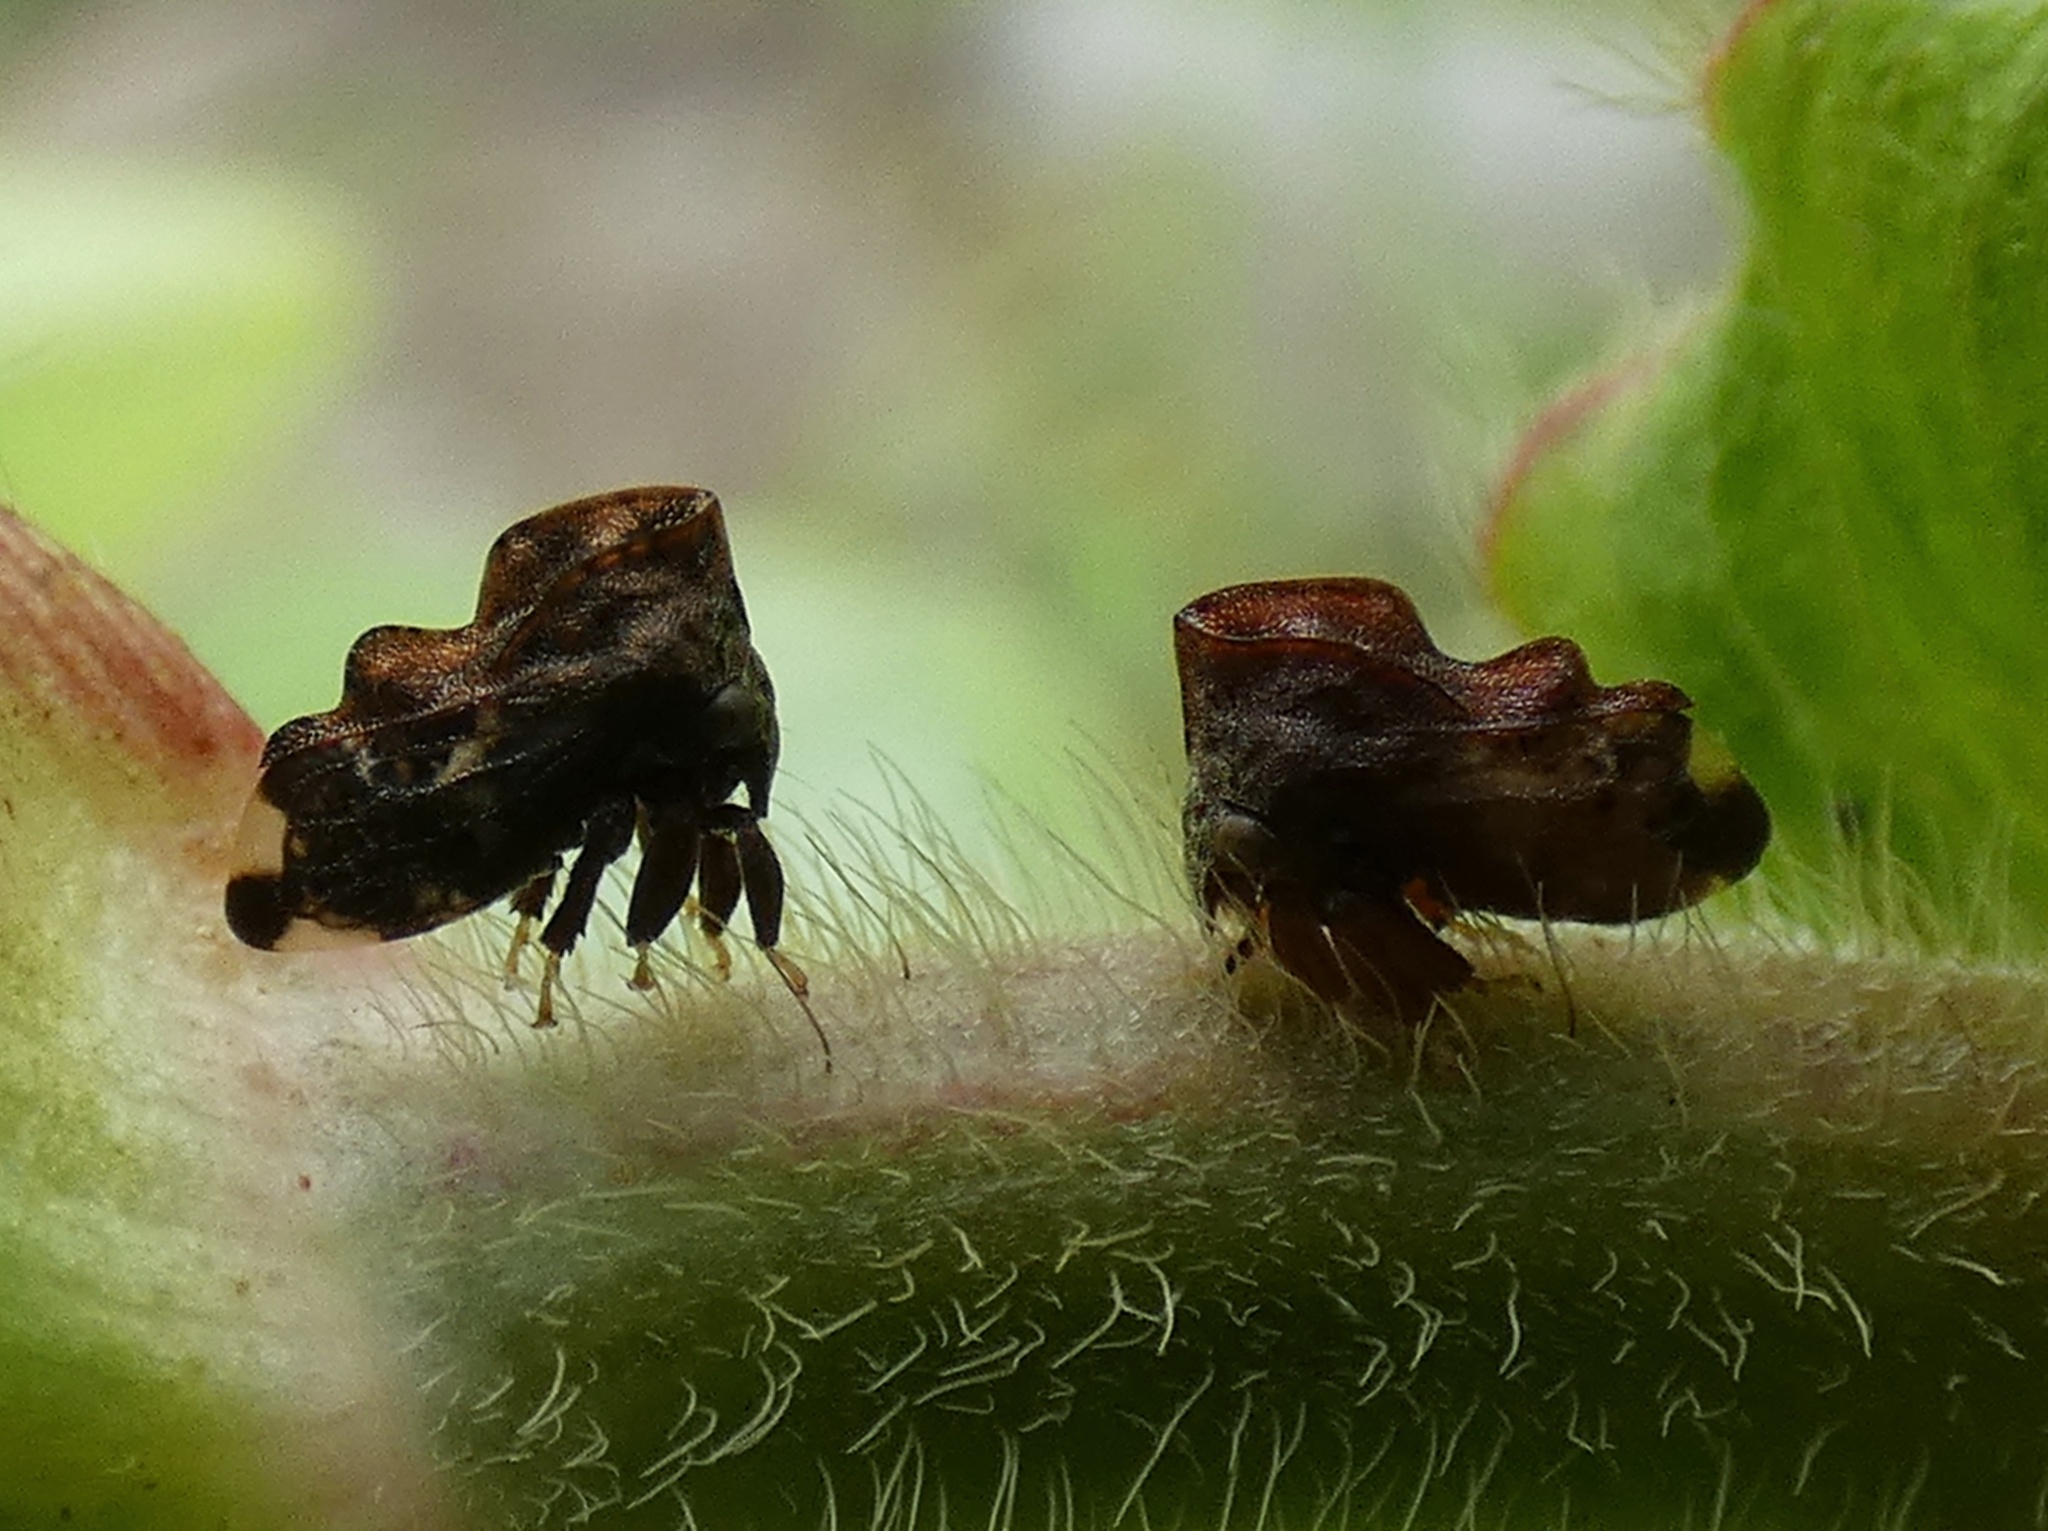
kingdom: Animalia
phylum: Arthropoda
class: Insecta
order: Hemiptera
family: Membracidae
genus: Tylopelta
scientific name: Tylopelta gibbera
